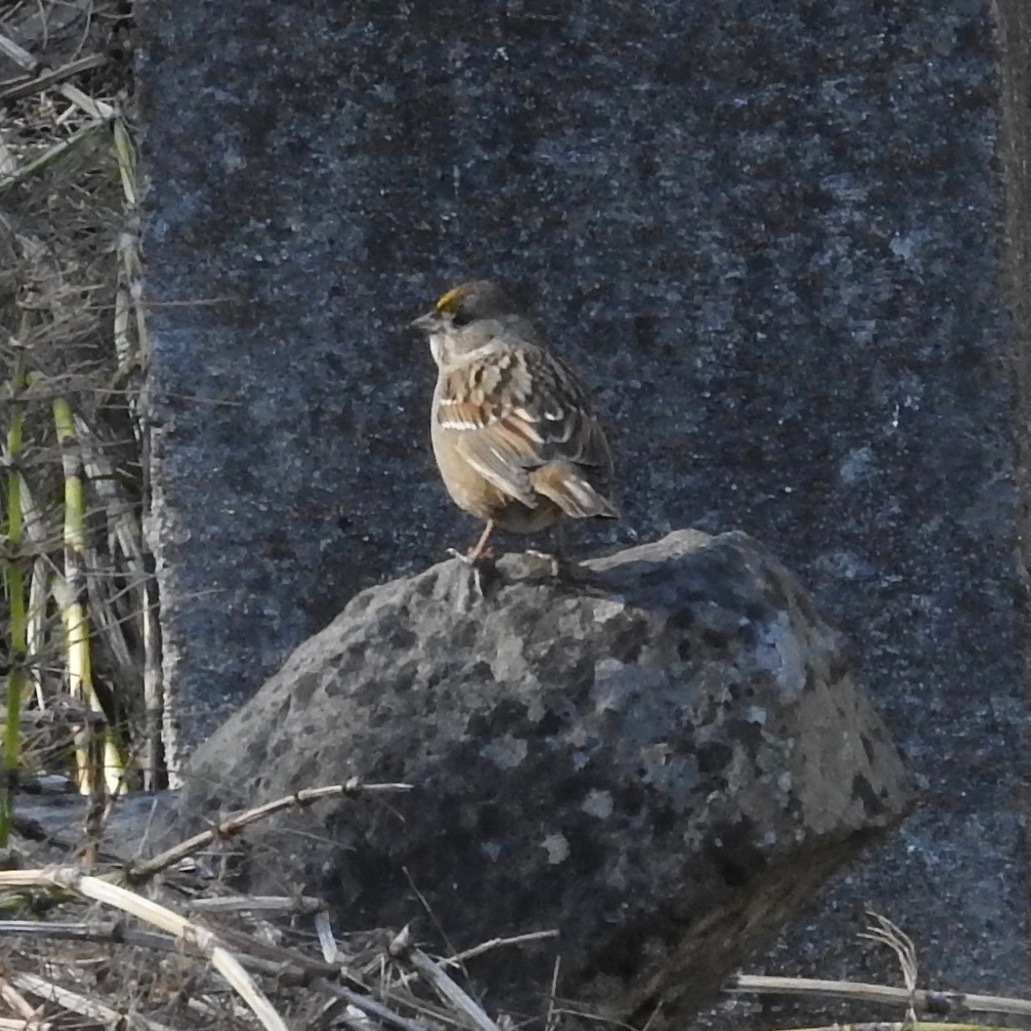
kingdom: Animalia
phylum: Chordata
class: Aves
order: Passeriformes
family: Passerellidae
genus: Zonotrichia
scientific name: Zonotrichia atricapilla
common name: Golden-crowned sparrow
